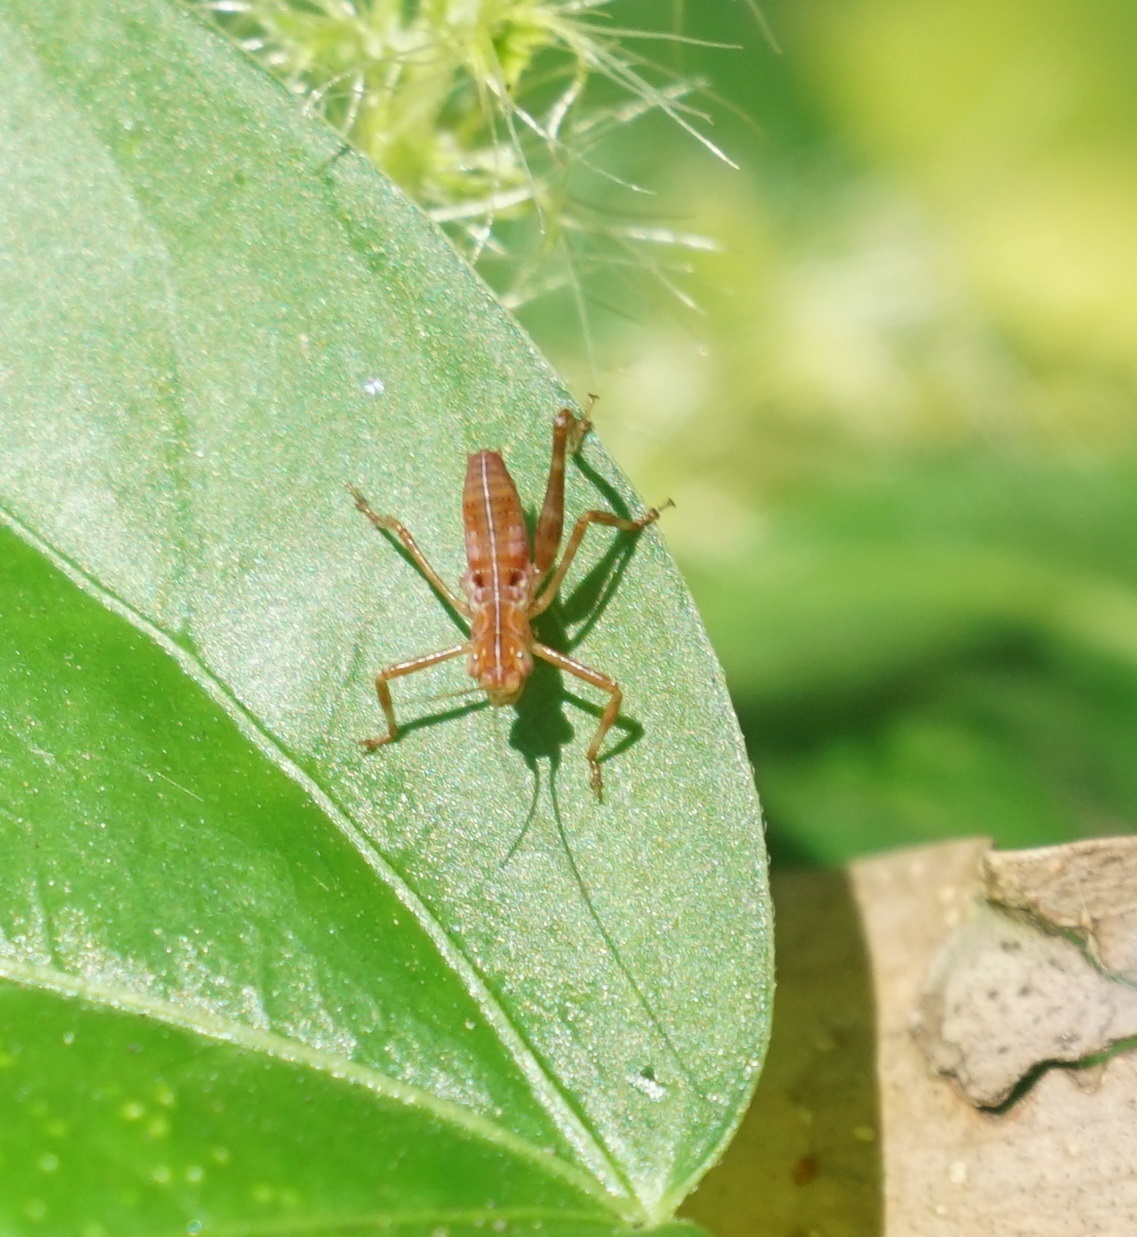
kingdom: Animalia
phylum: Arthropoda
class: Insecta
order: Orthoptera
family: Tettigoniidae
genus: Paracaedicia
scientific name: Paracaedicia serrata
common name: Serrated bush katydid
